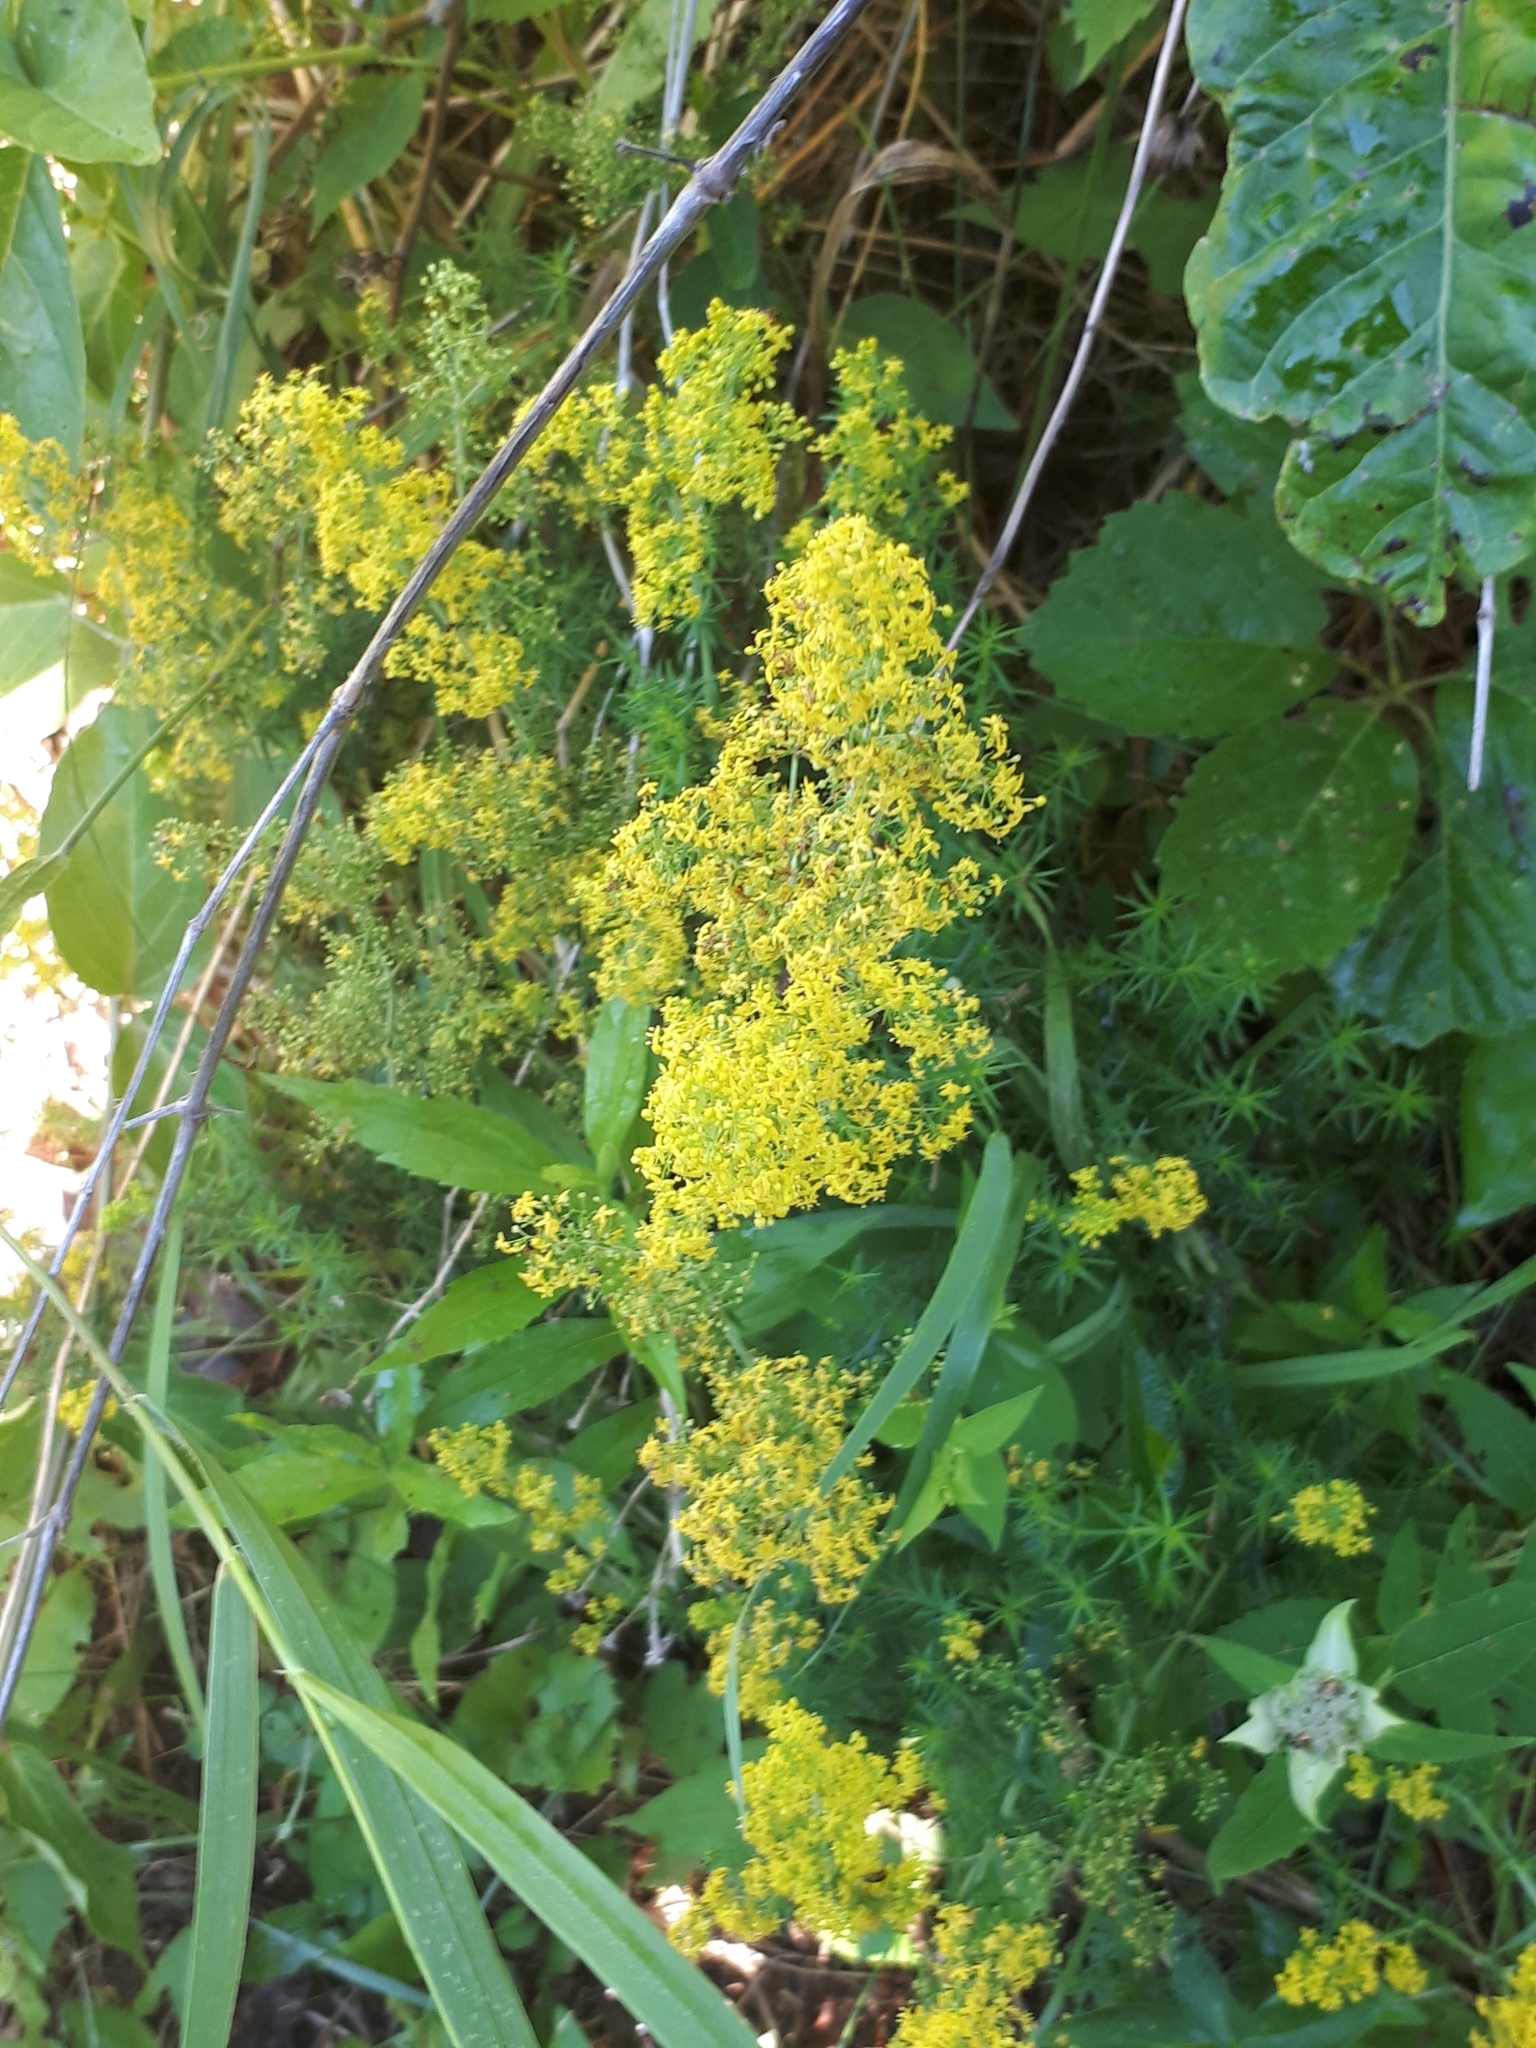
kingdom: Plantae
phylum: Tracheophyta
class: Magnoliopsida
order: Gentianales
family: Rubiaceae
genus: Galium
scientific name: Galium verum
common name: Lady's bedstraw
